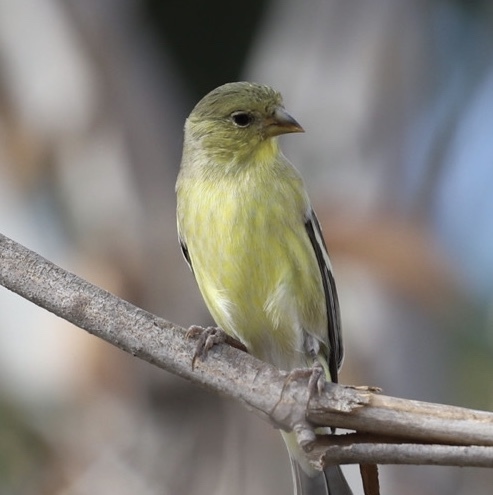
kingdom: Animalia
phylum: Chordata
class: Aves
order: Passeriformes
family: Fringillidae
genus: Spinus
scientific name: Spinus psaltria
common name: Lesser goldfinch
